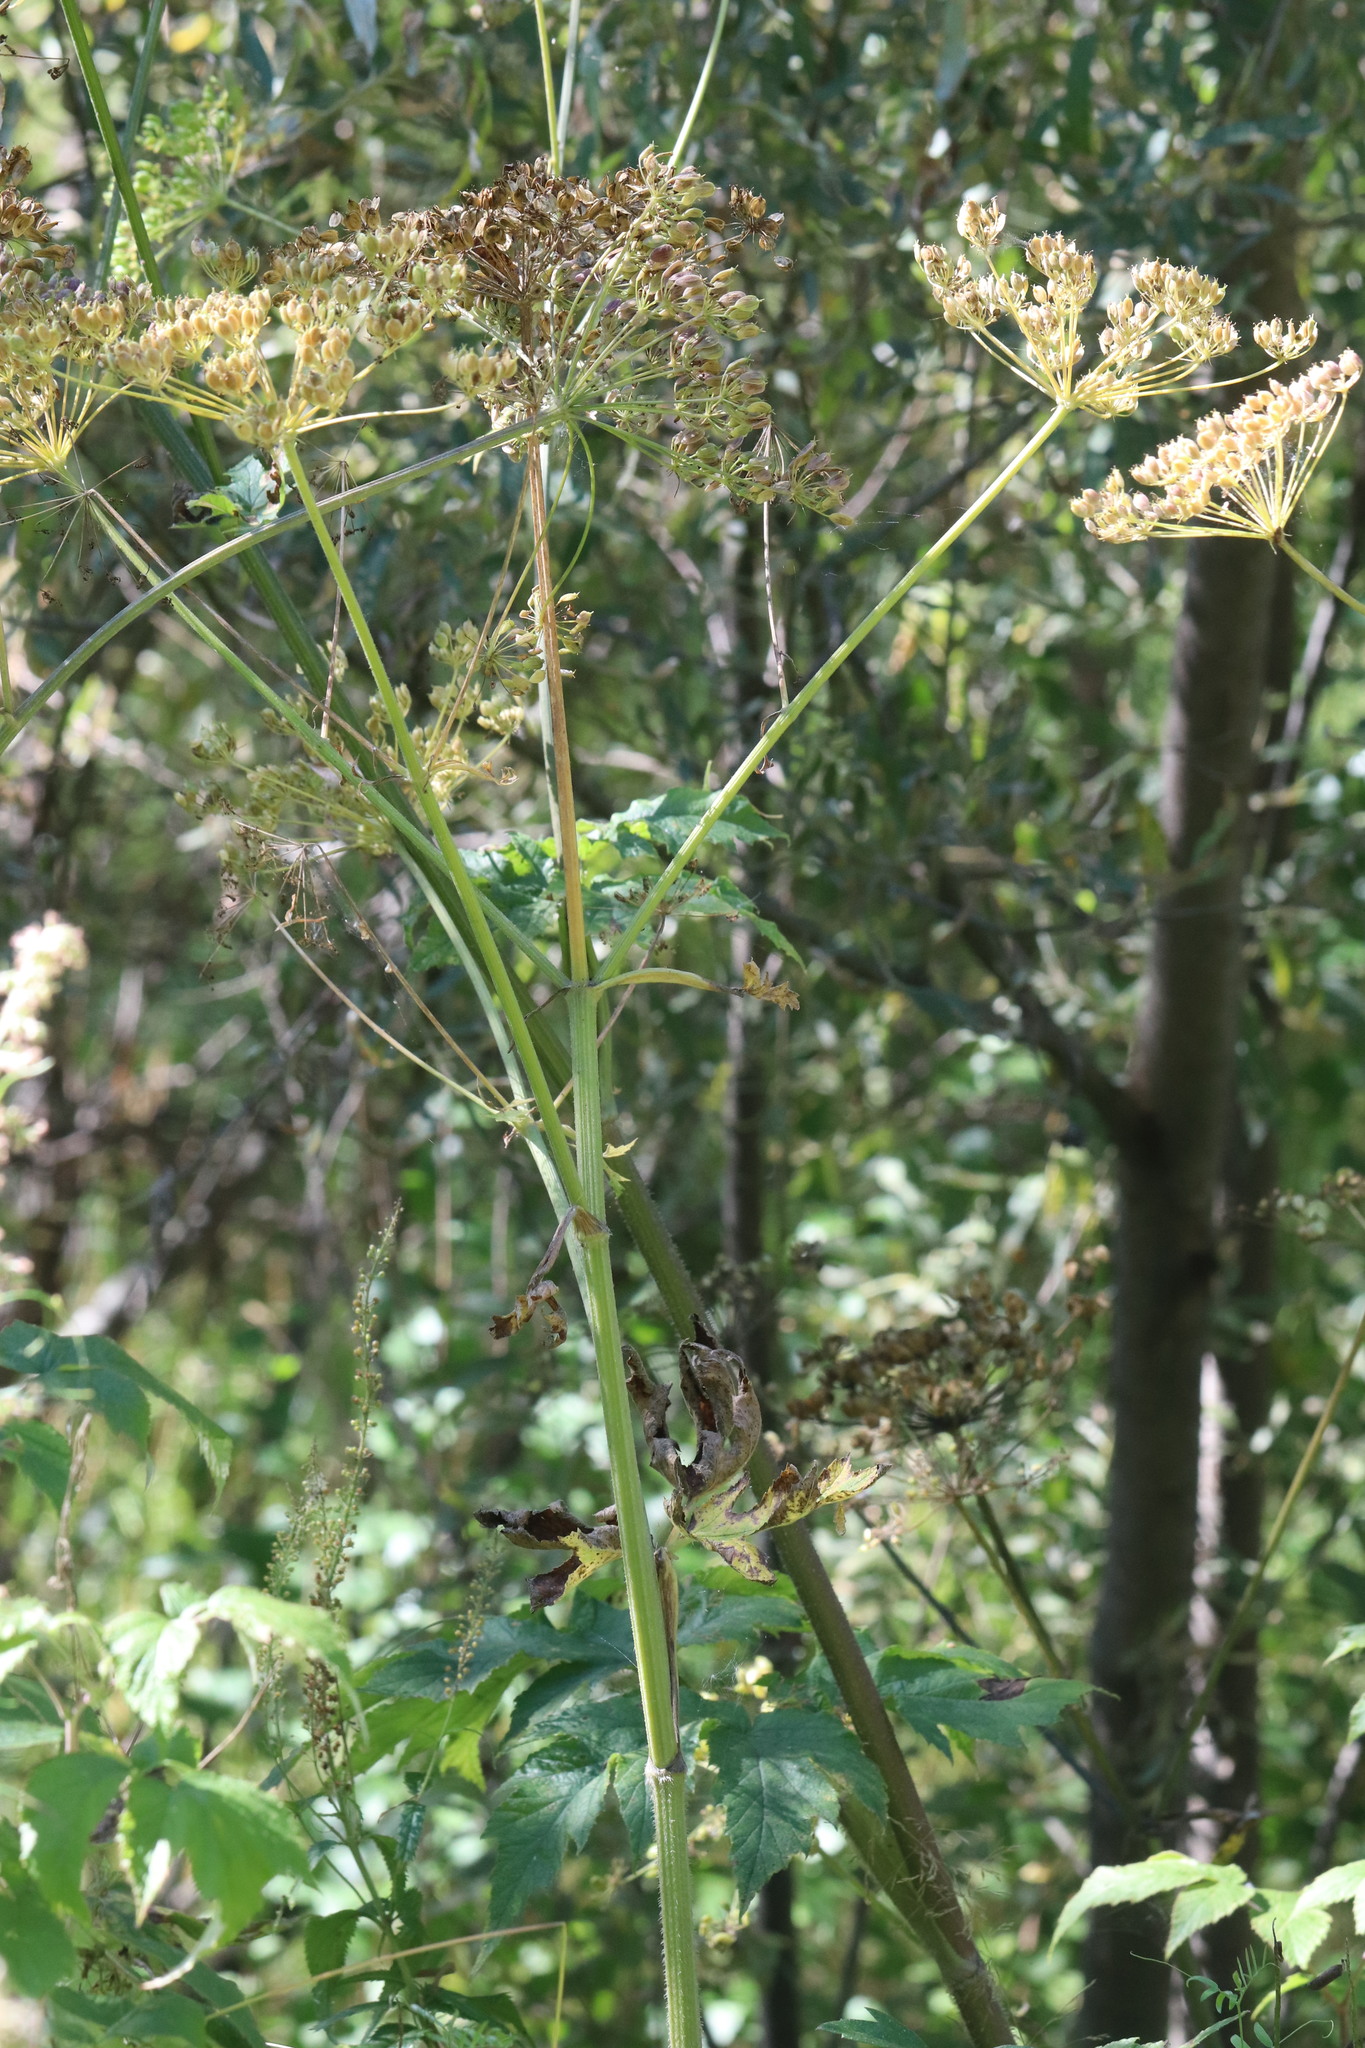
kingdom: Plantae
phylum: Tracheophyta
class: Magnoliopsida
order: Apiales
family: Apiaceae
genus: Heracleum
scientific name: Heracleum sphondylium
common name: Hogweed
